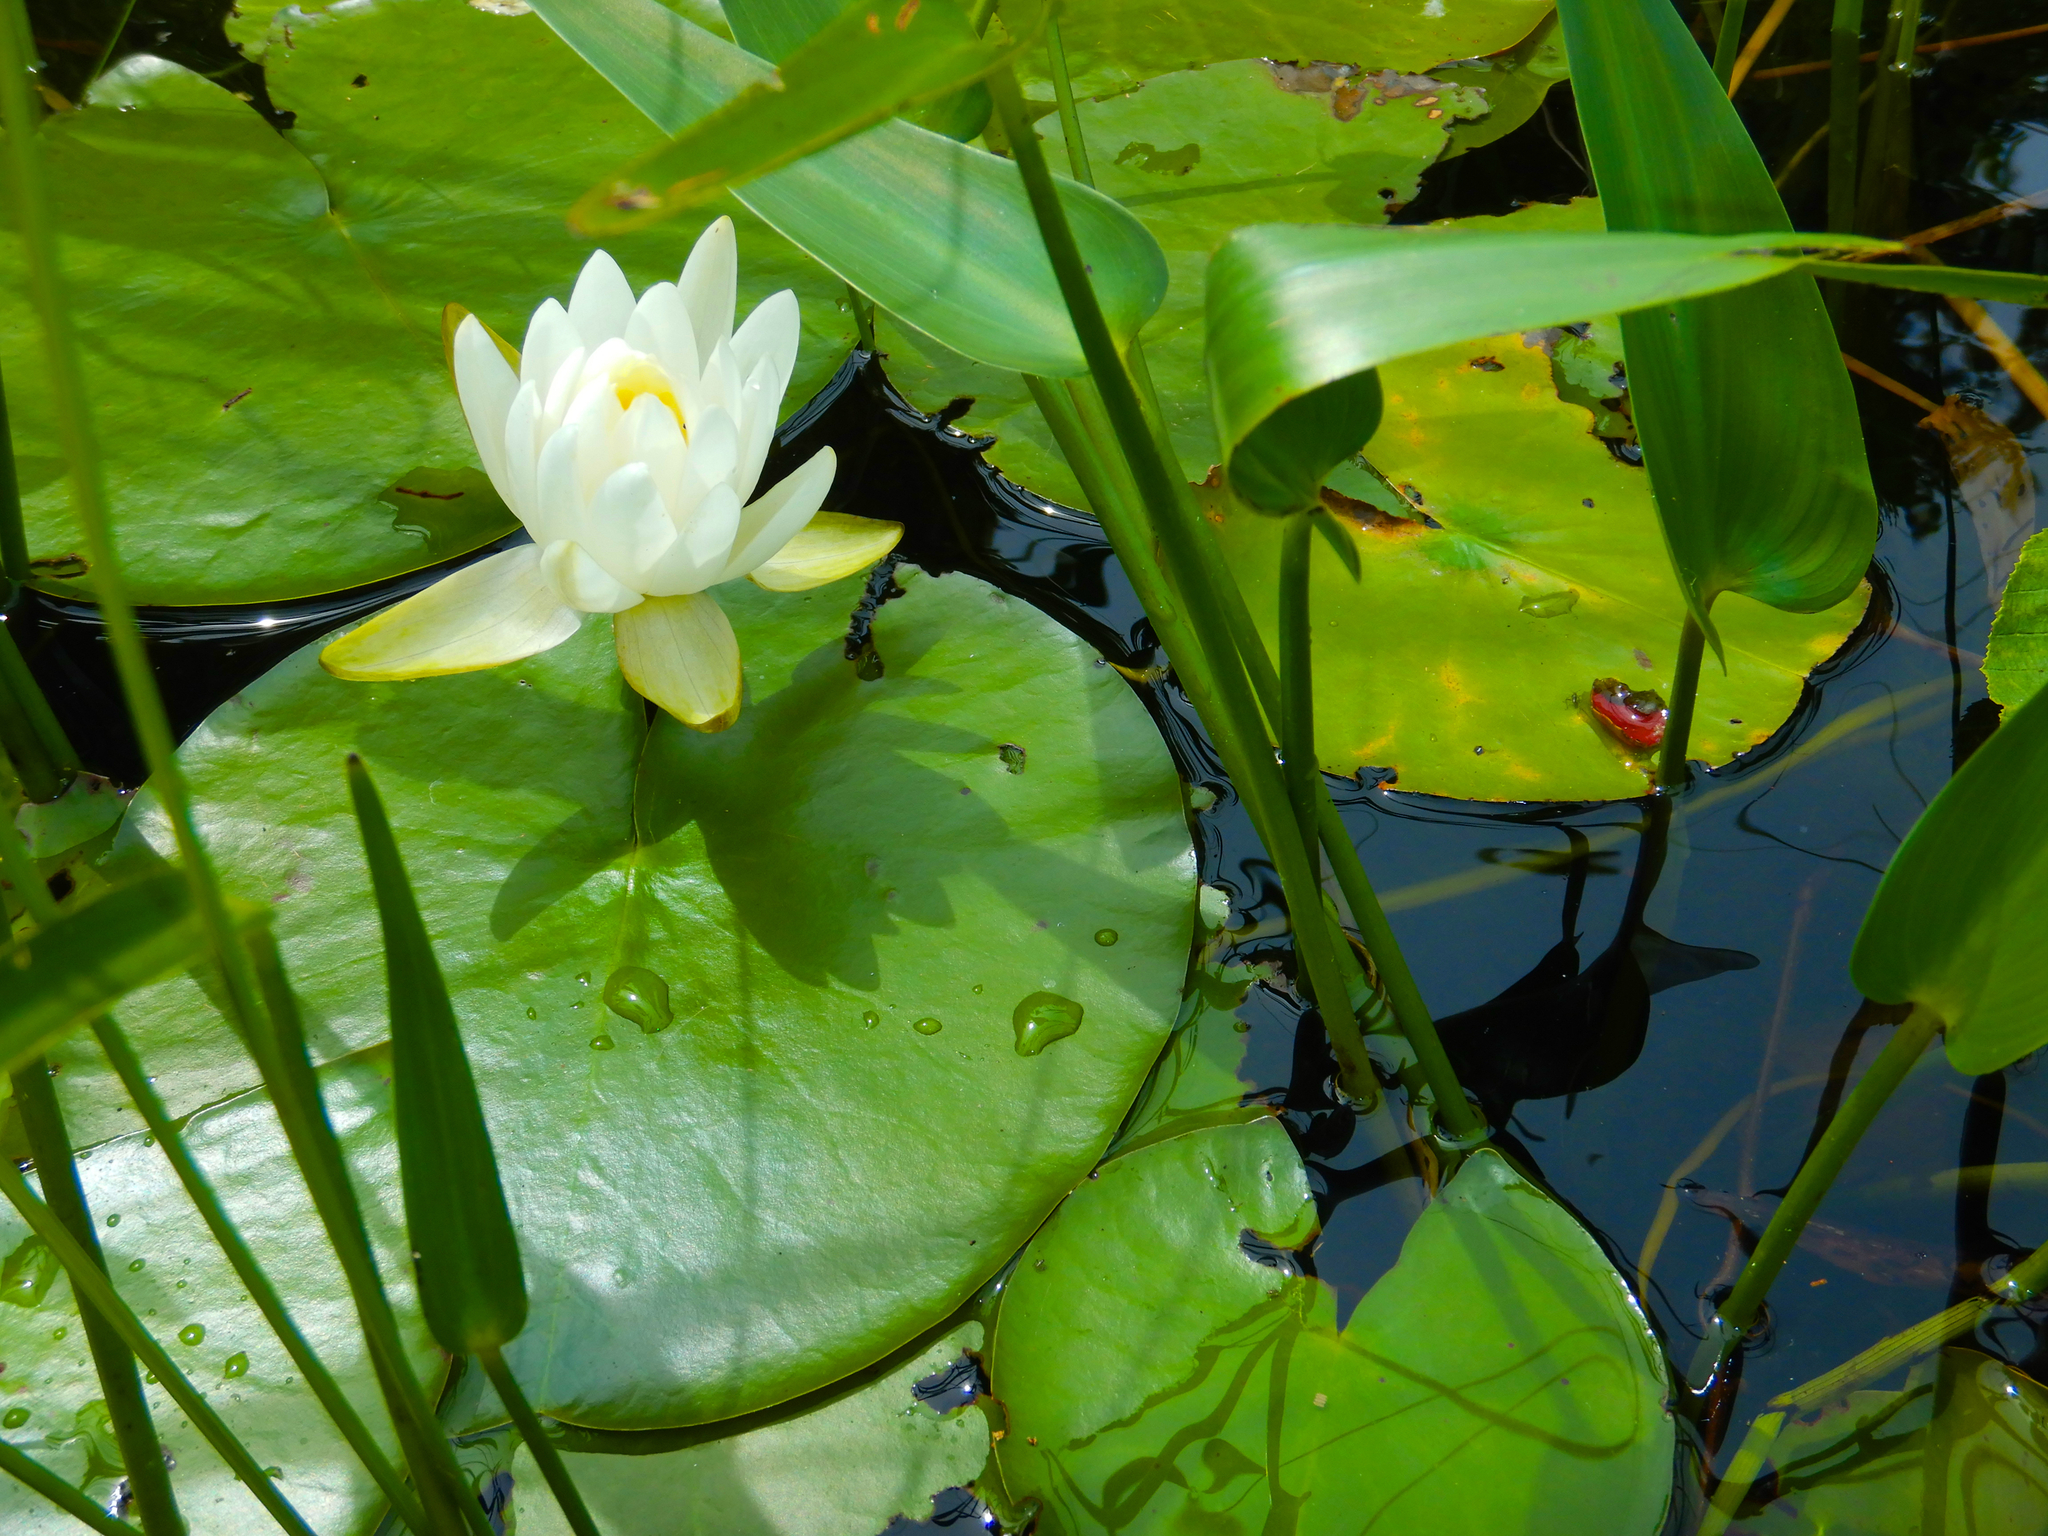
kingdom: Plantae
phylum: Tracheophyta
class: Magnoliopsida
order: Nymphaeales
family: Nymphaeaceae
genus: Nymphaea
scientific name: Nymphaea odorata
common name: Fragrant water-lily
